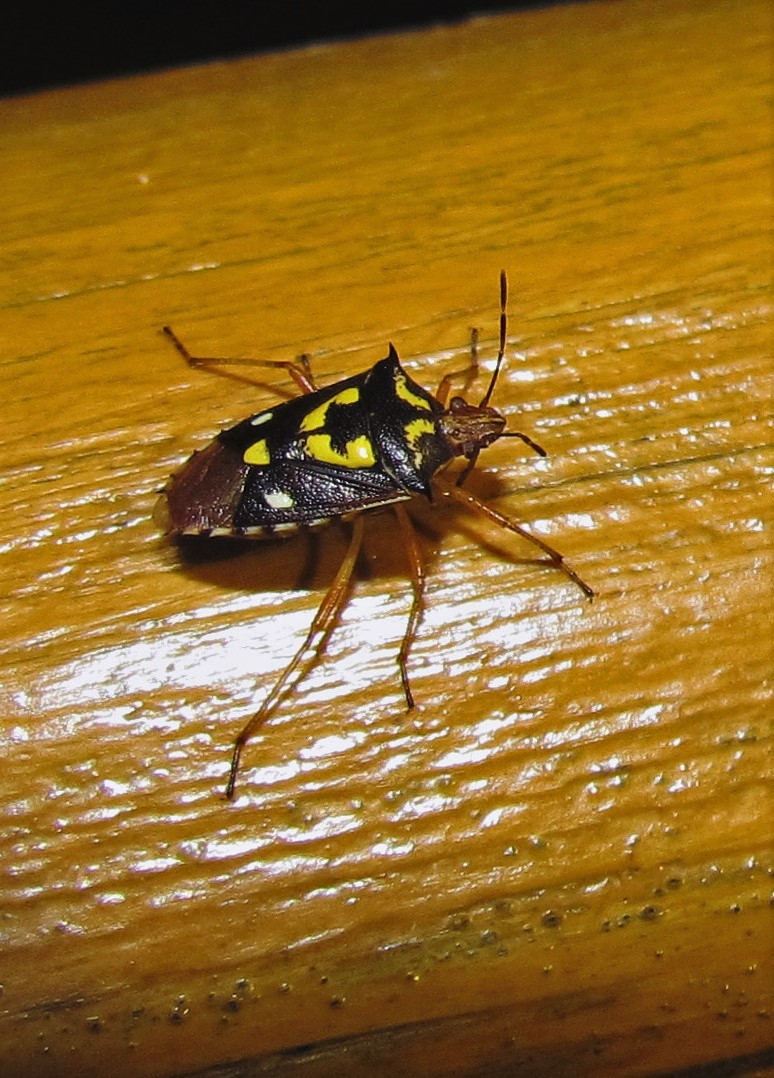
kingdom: Animalia
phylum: Arthropoda
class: Insecta
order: Hemiptera
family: Pentatomidae
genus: Oebalus
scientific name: Oebalus poecilus
